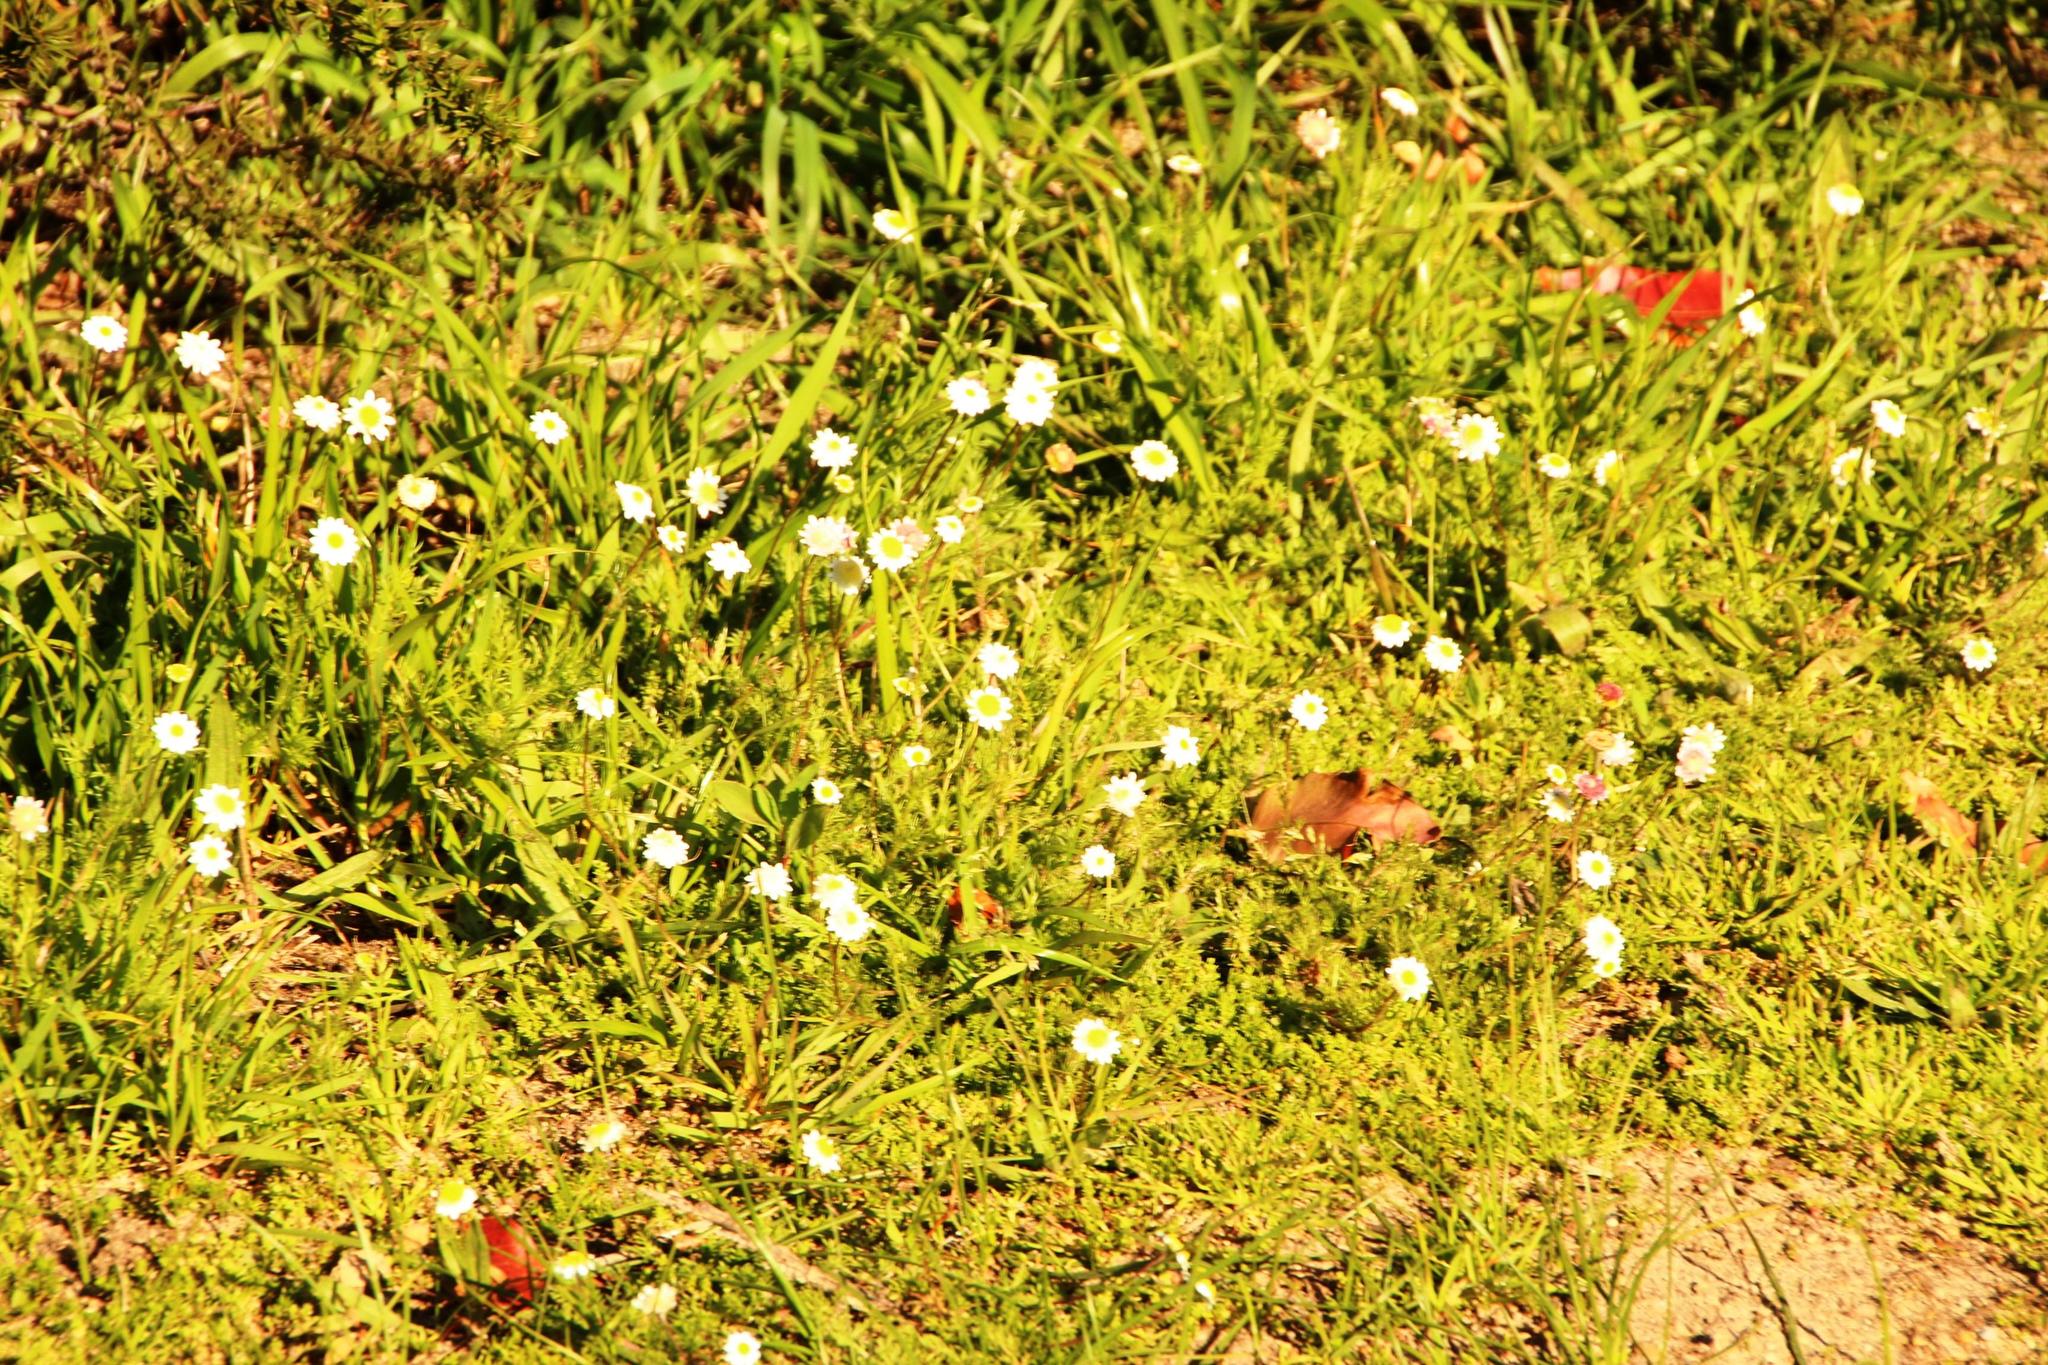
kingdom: Plantae
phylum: Tracheophyta
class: Magnoliopsida
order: Asterales
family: Asteraceae
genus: Cotula
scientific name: Cotula turbinata
